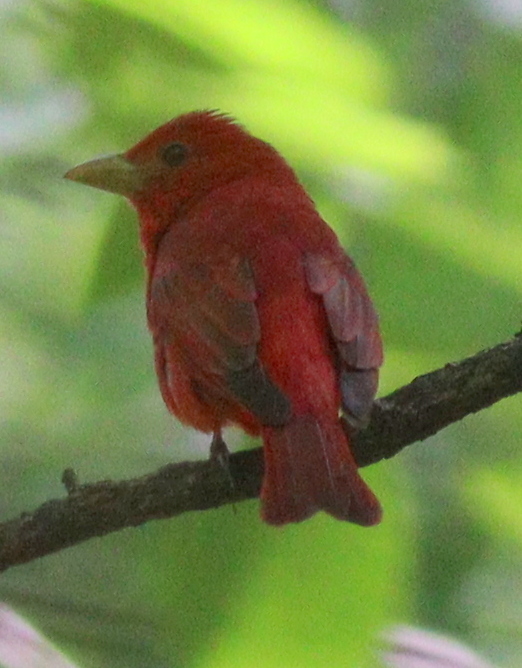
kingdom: Animalia
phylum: Chordata
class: Aves
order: Passeriformes
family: Cardinalidae
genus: Piranga
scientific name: Piranga rubra
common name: Summer tanager
